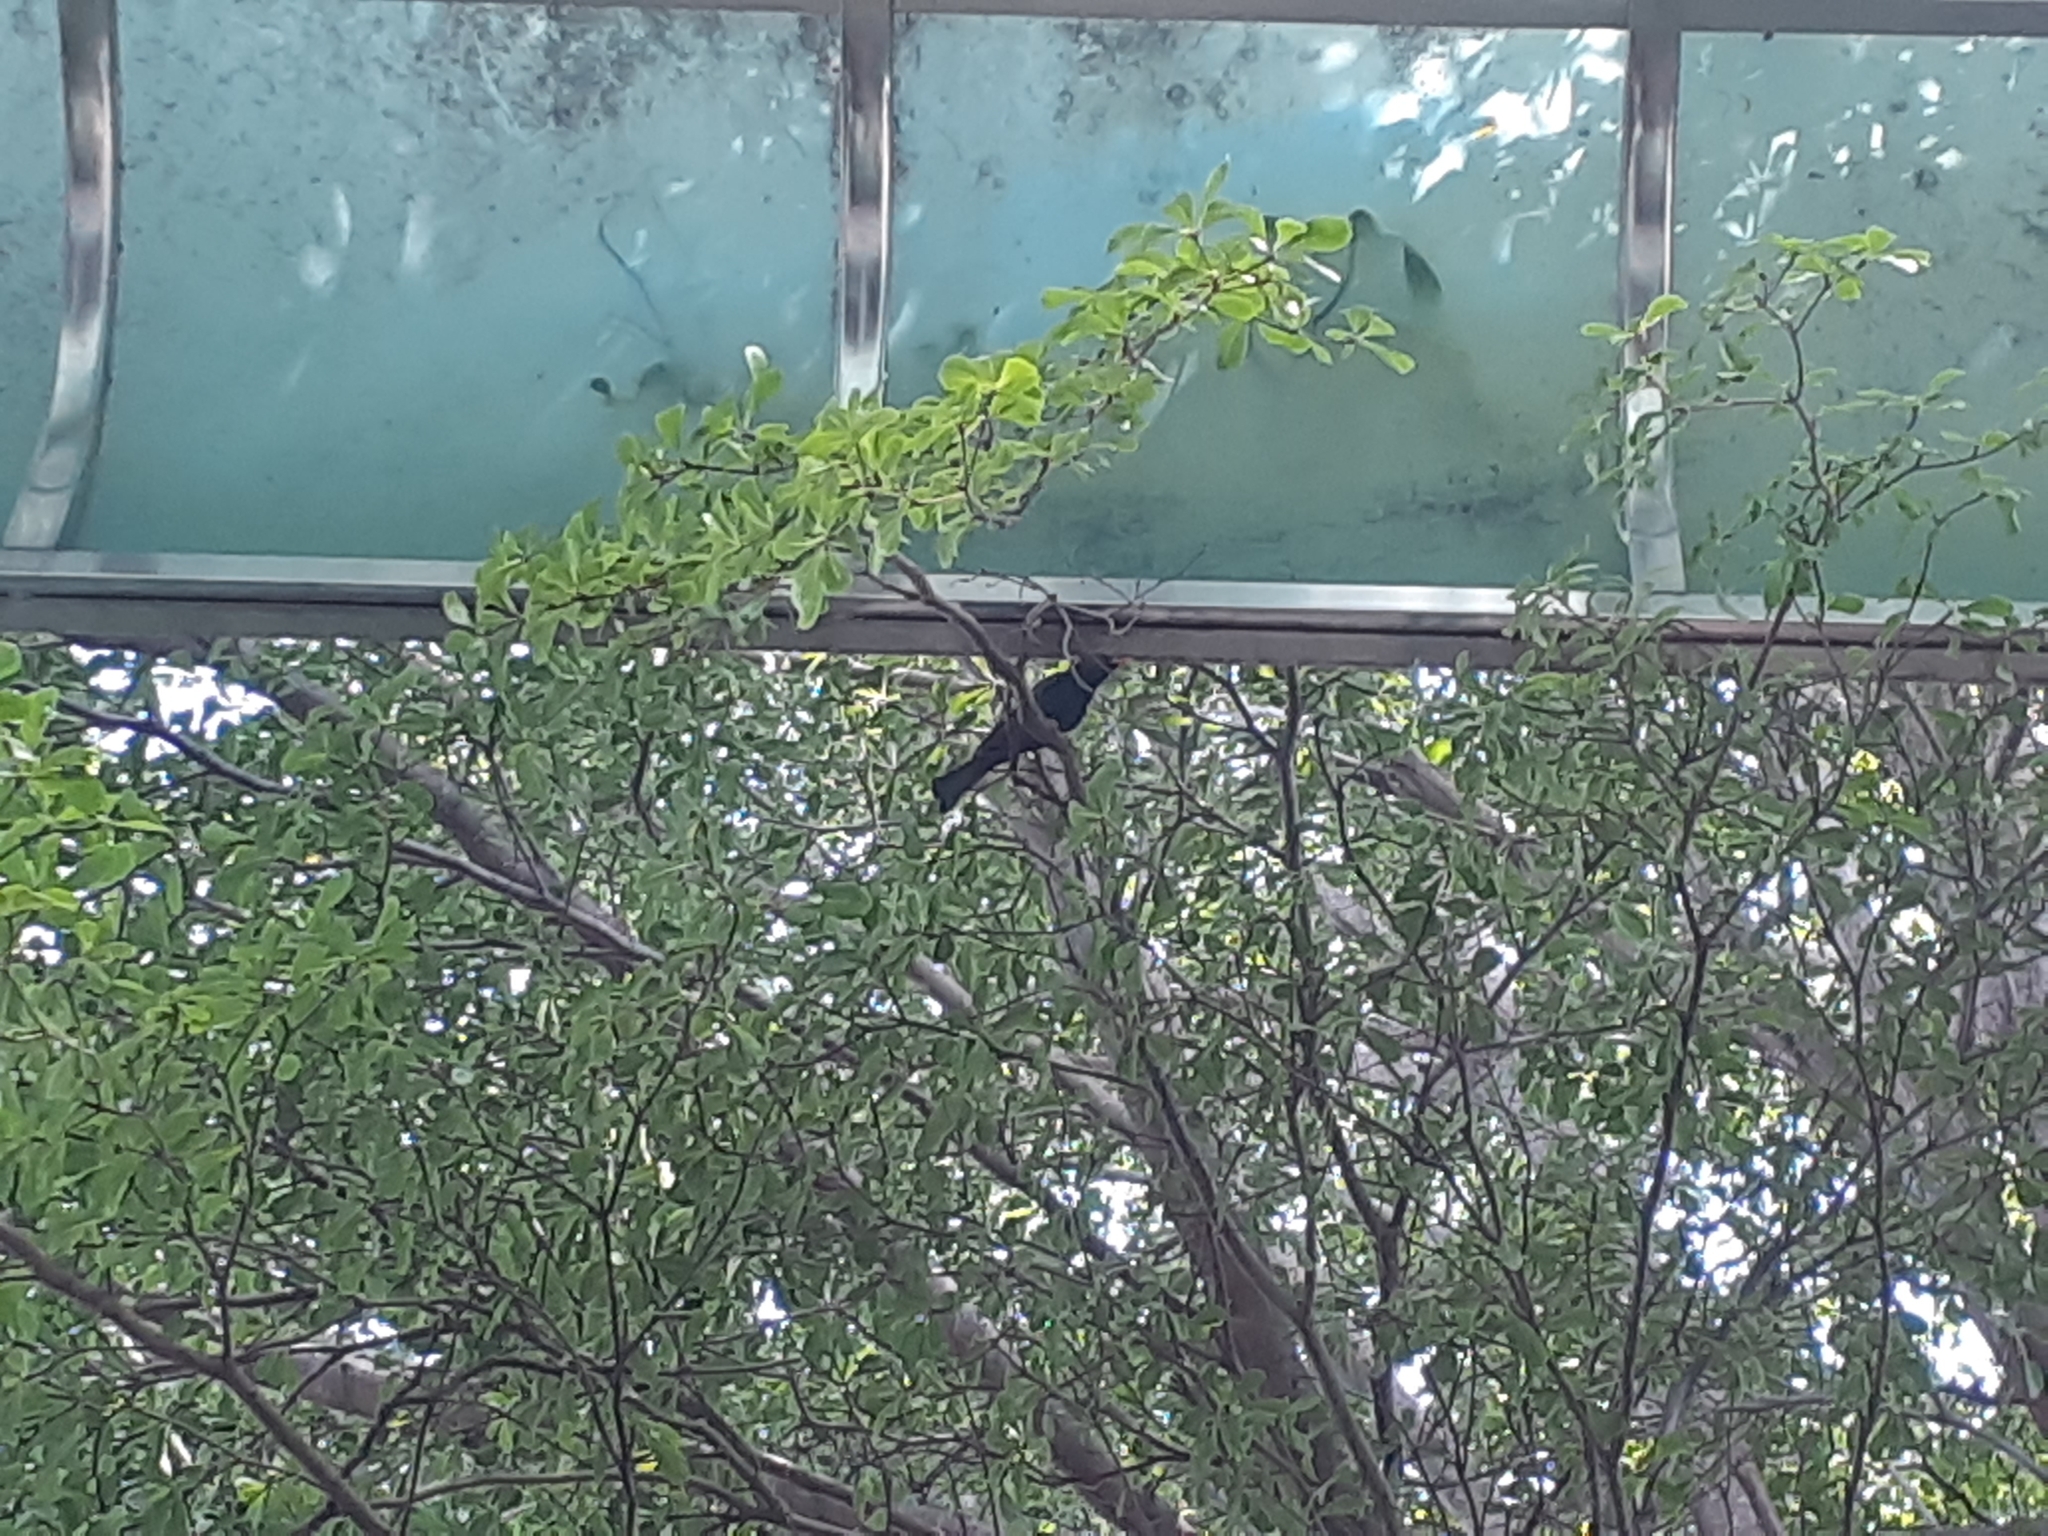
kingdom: Animalia
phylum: Chordata
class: Aves
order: Passeriformes
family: Pycnonotidae
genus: Hypsipetes
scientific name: Hypsipetes leucocephalus
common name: Black bulbul
